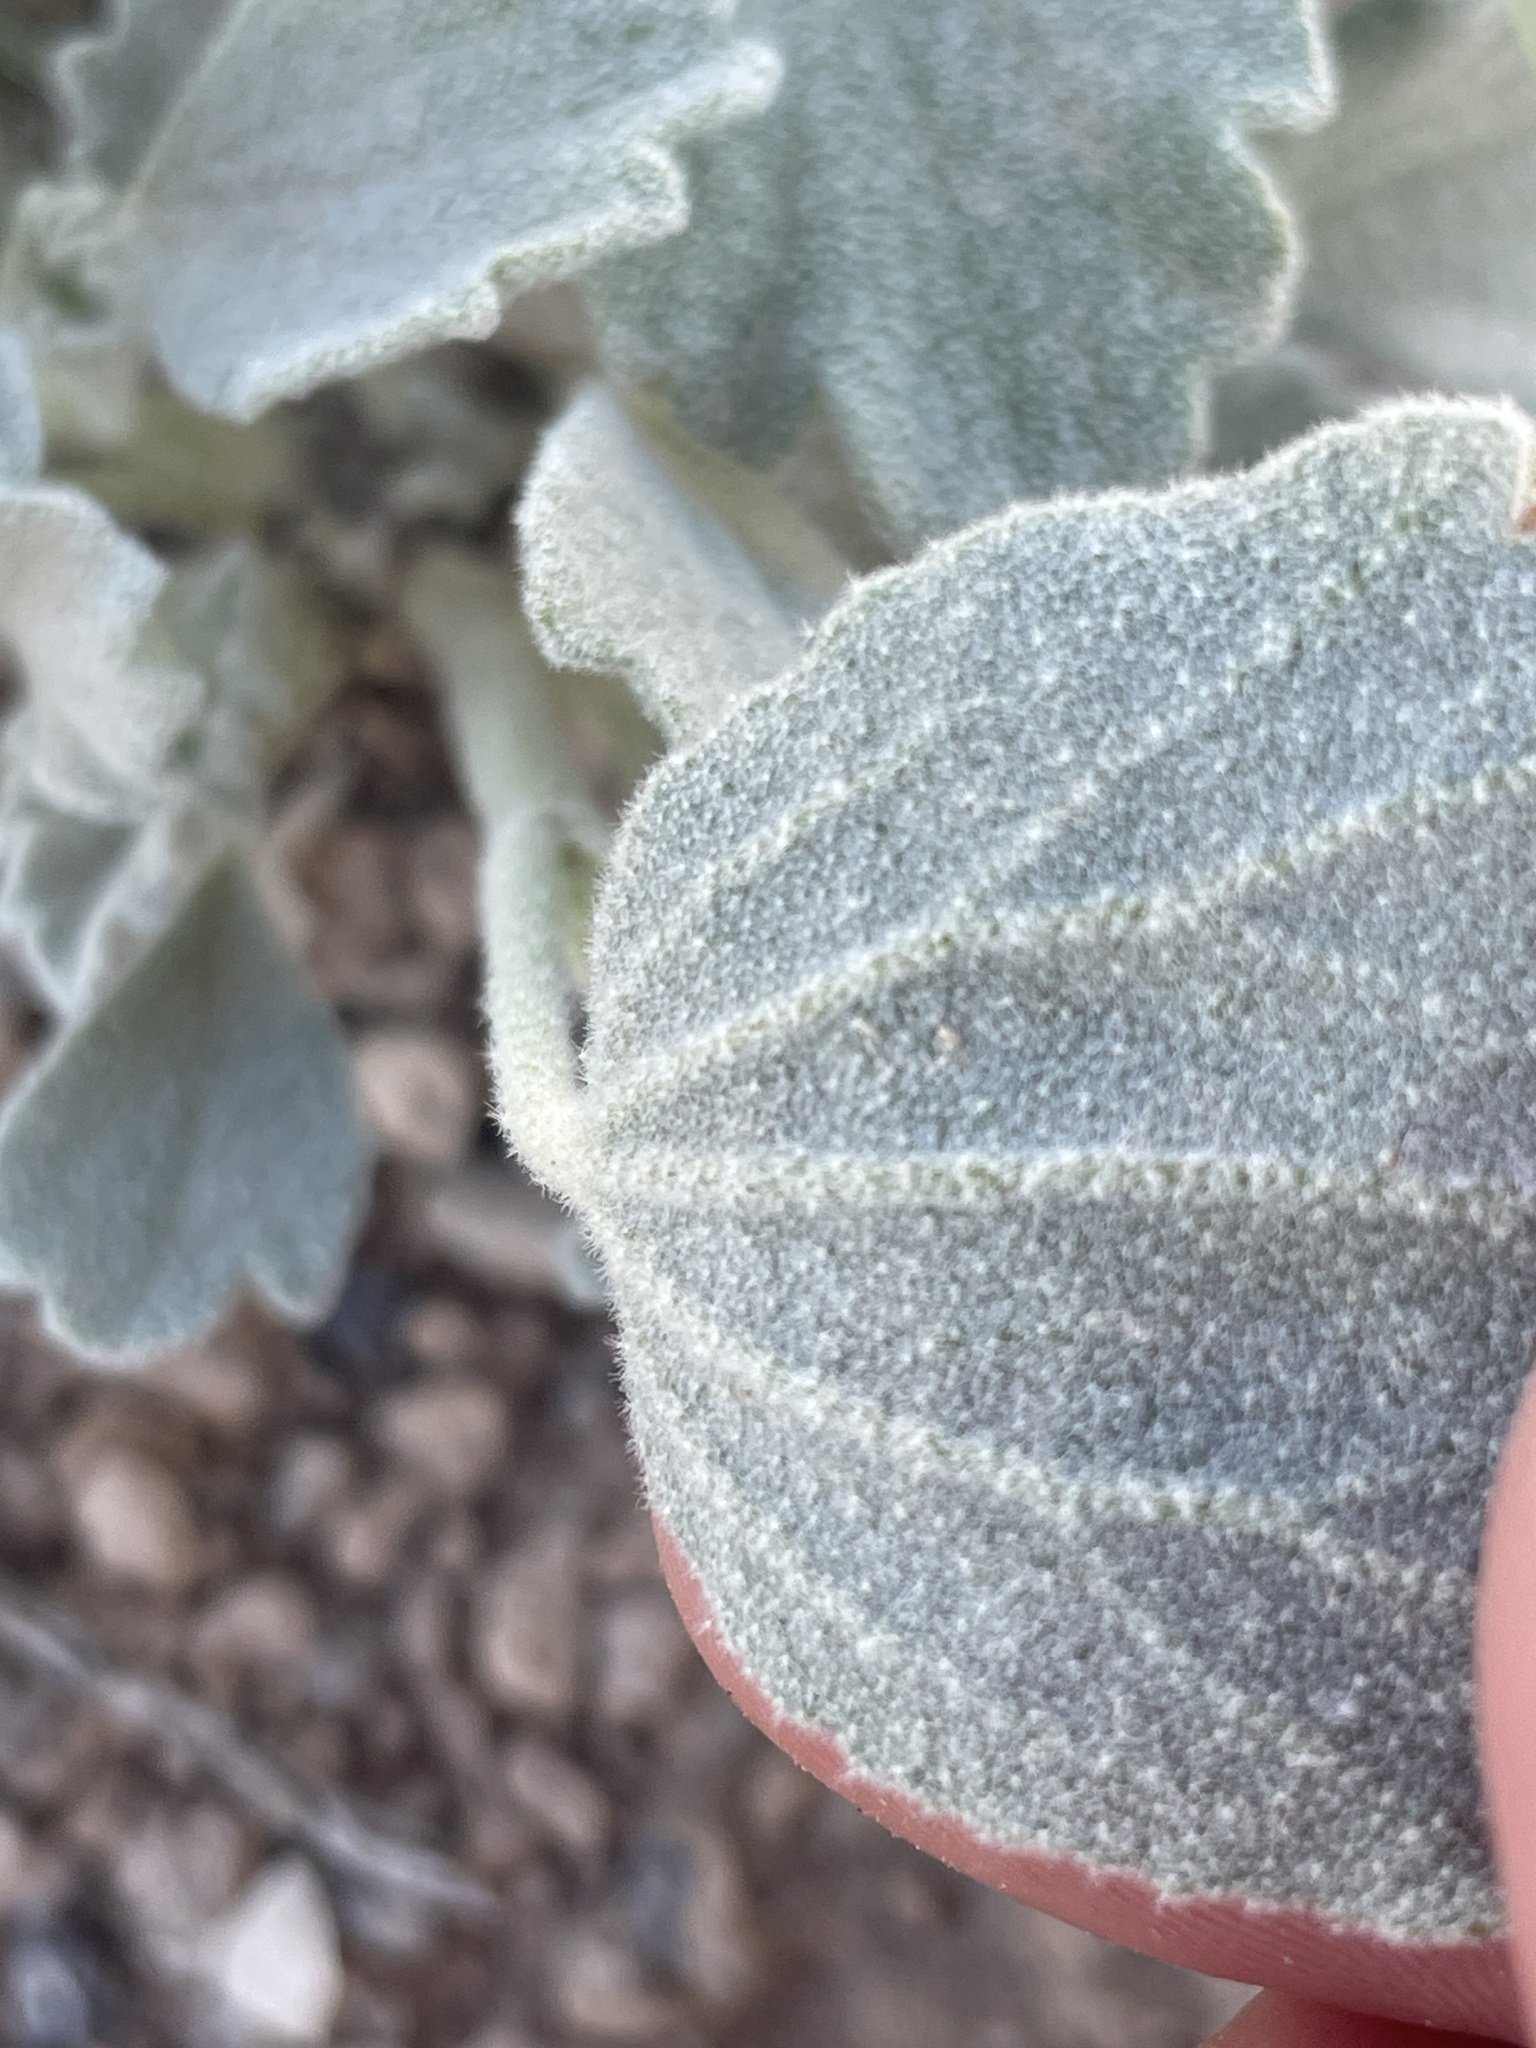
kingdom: Plantae
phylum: Tracheophyta
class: Magnoliopsida
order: Malvales
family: Malvaceae
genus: Sphaeralcea
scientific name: Sphaeralcea caespitosa
